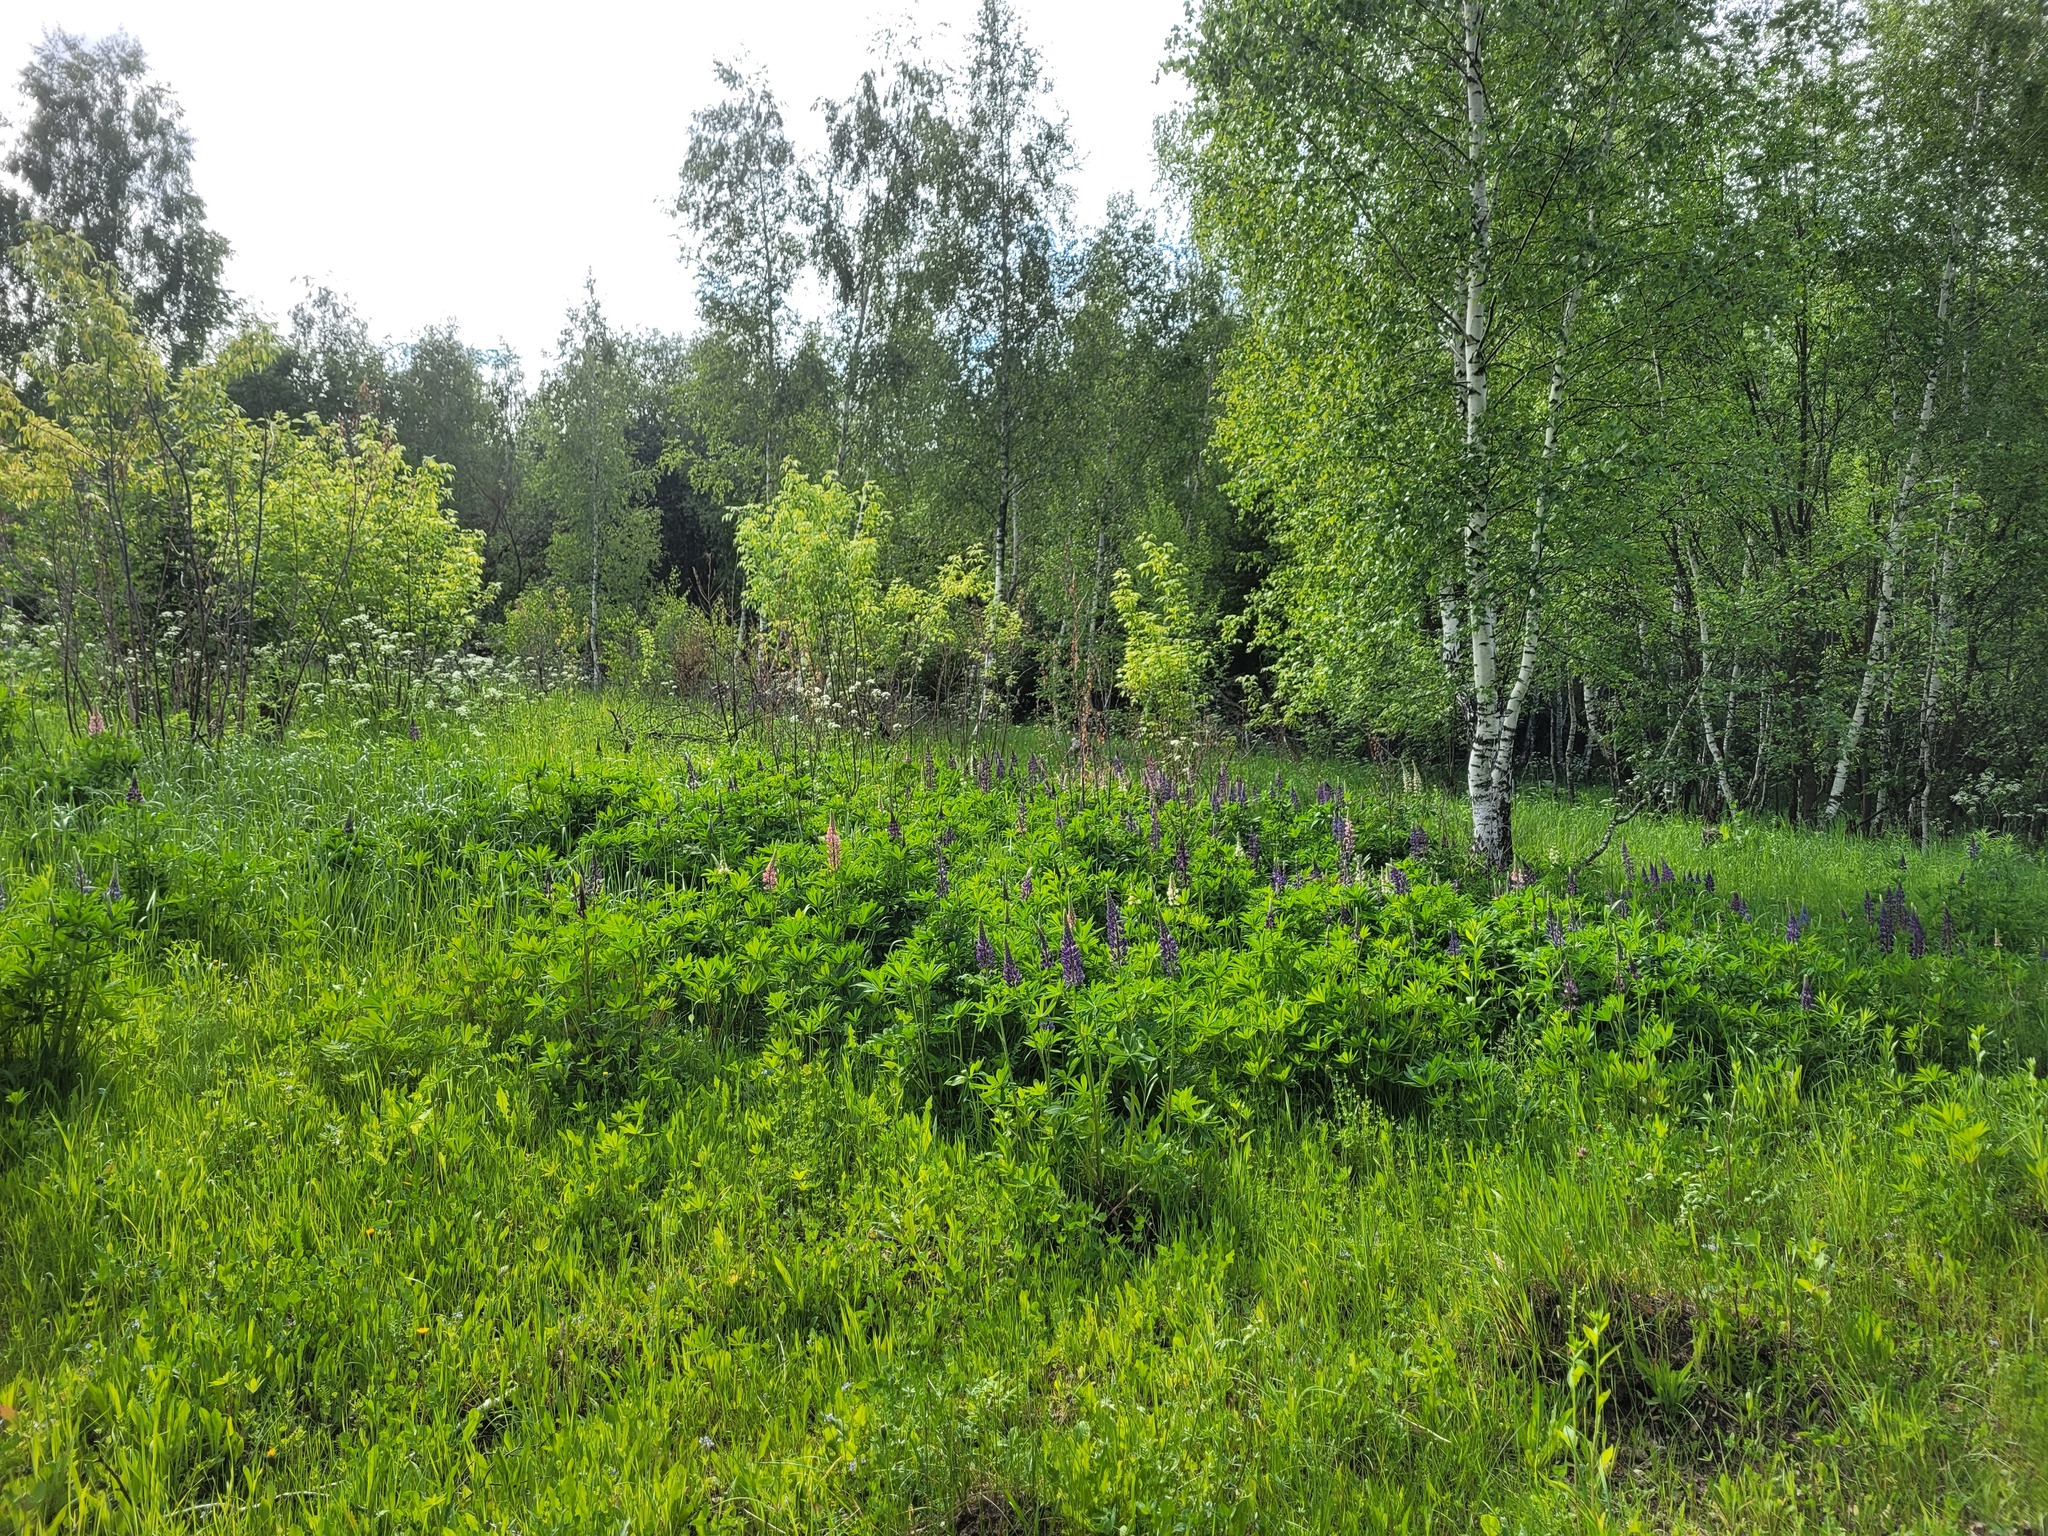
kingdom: Plantae
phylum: Tracheophyta
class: Magnoliopsida
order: Fabales
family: Fabaceae
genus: Lupinus
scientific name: Lupinus polyphyllus
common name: Garden lupin
